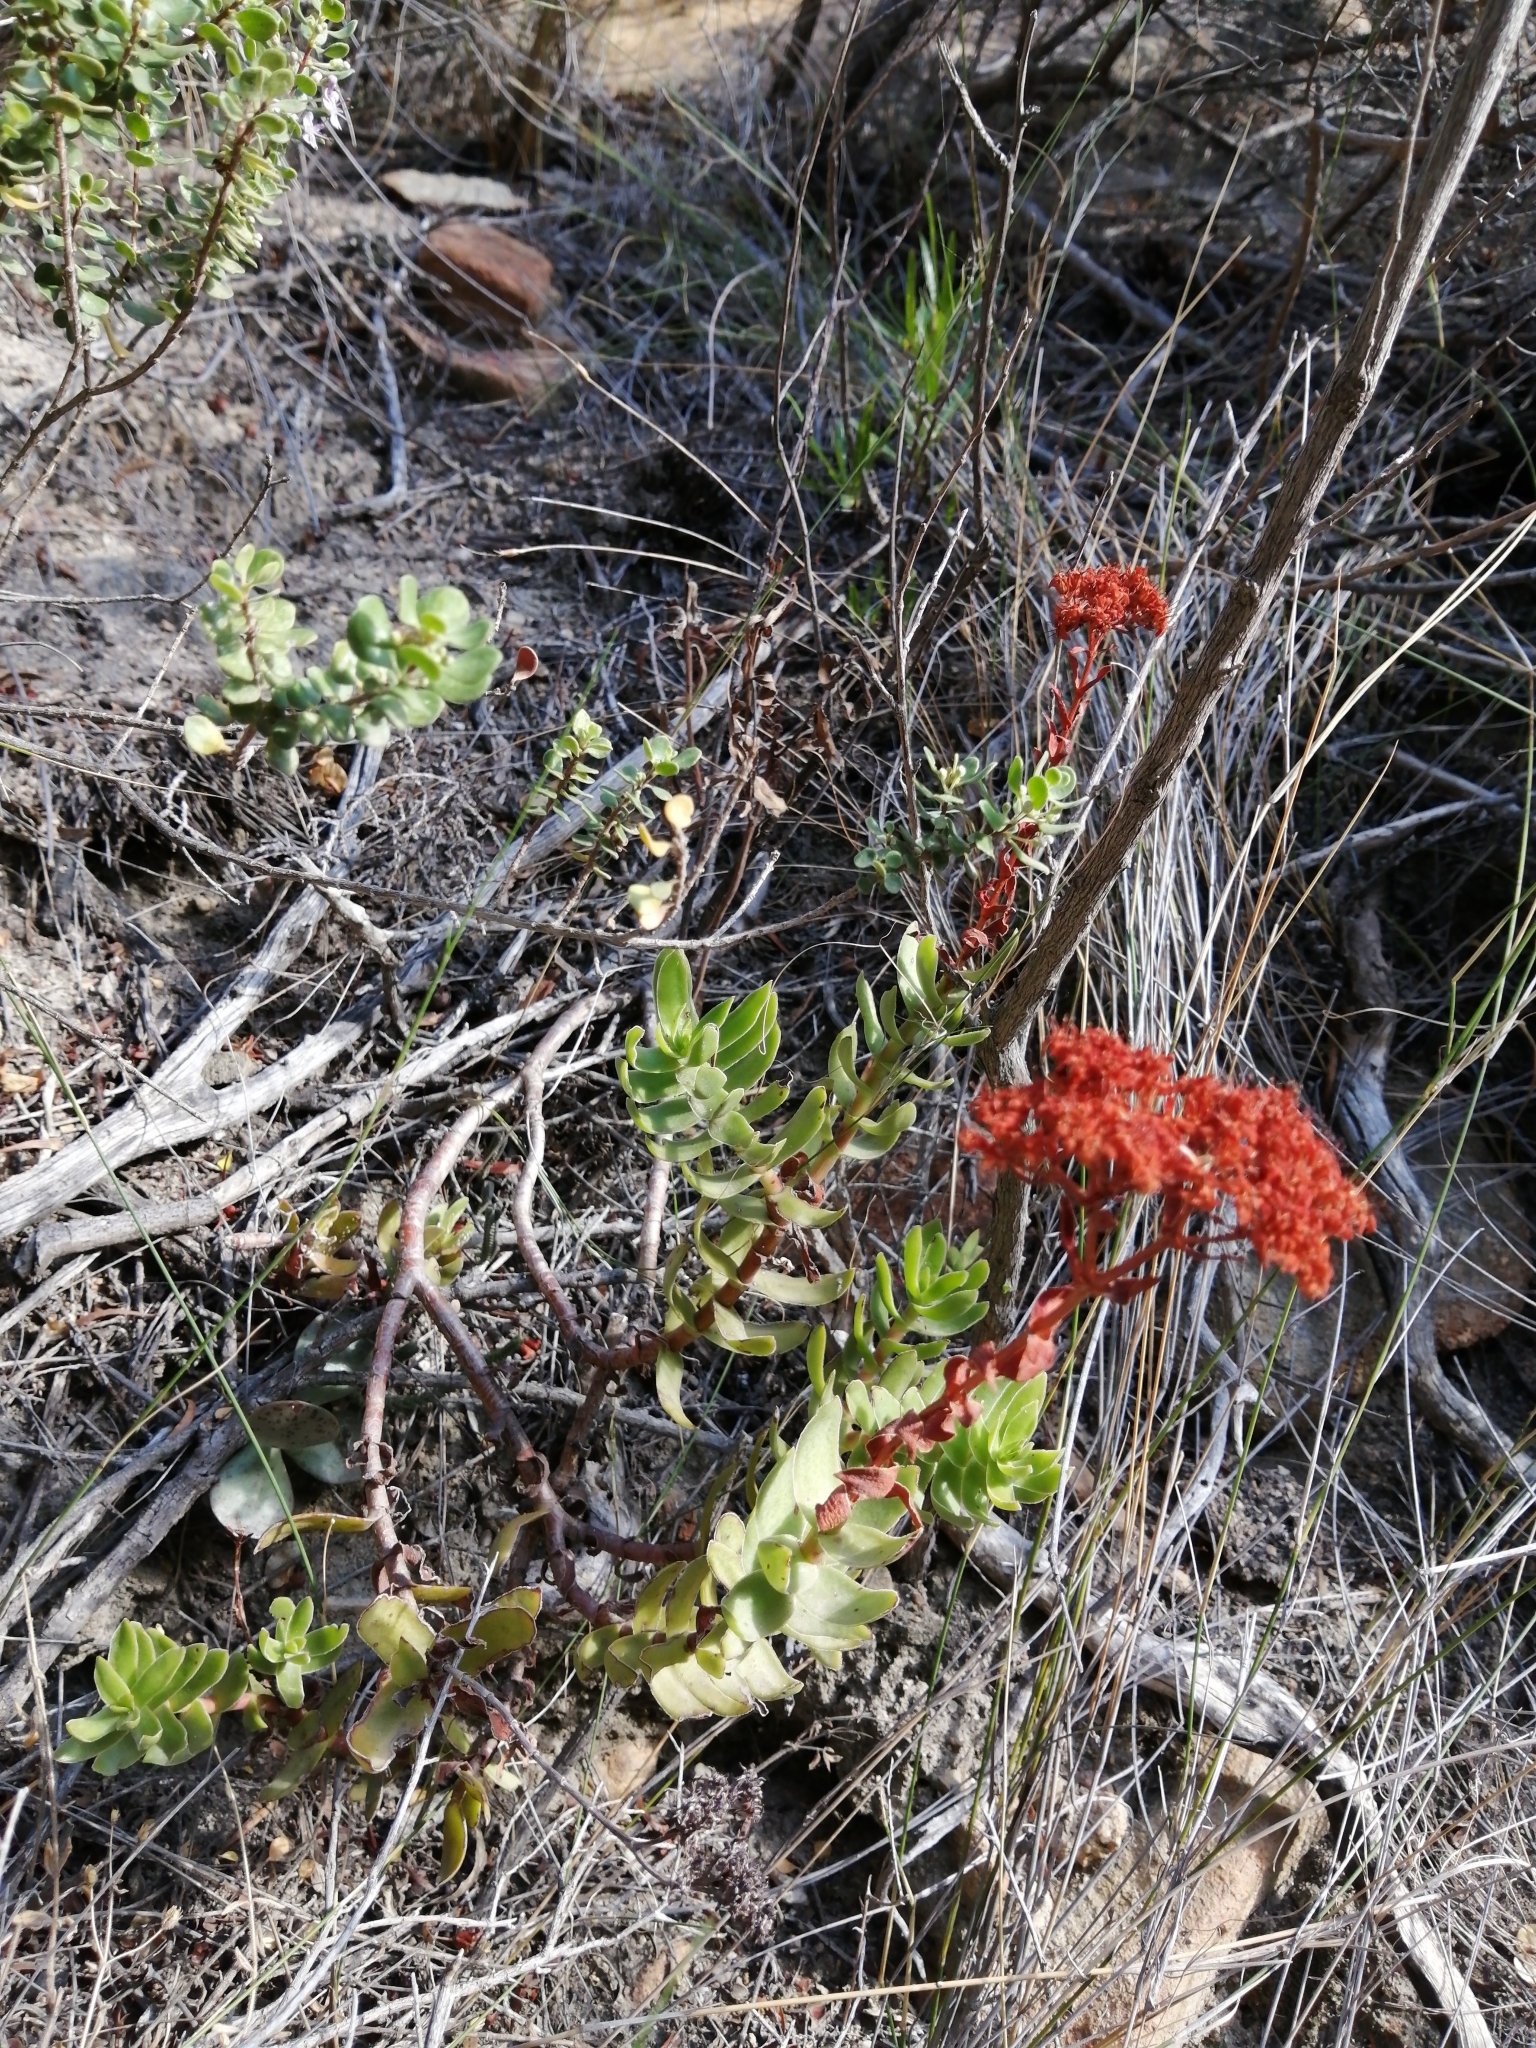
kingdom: Plantae
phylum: Tracheophyta
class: Magnoliopsida
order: Saxifragales
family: Crassulaceae
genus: Crassula
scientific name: Crassula undulata
